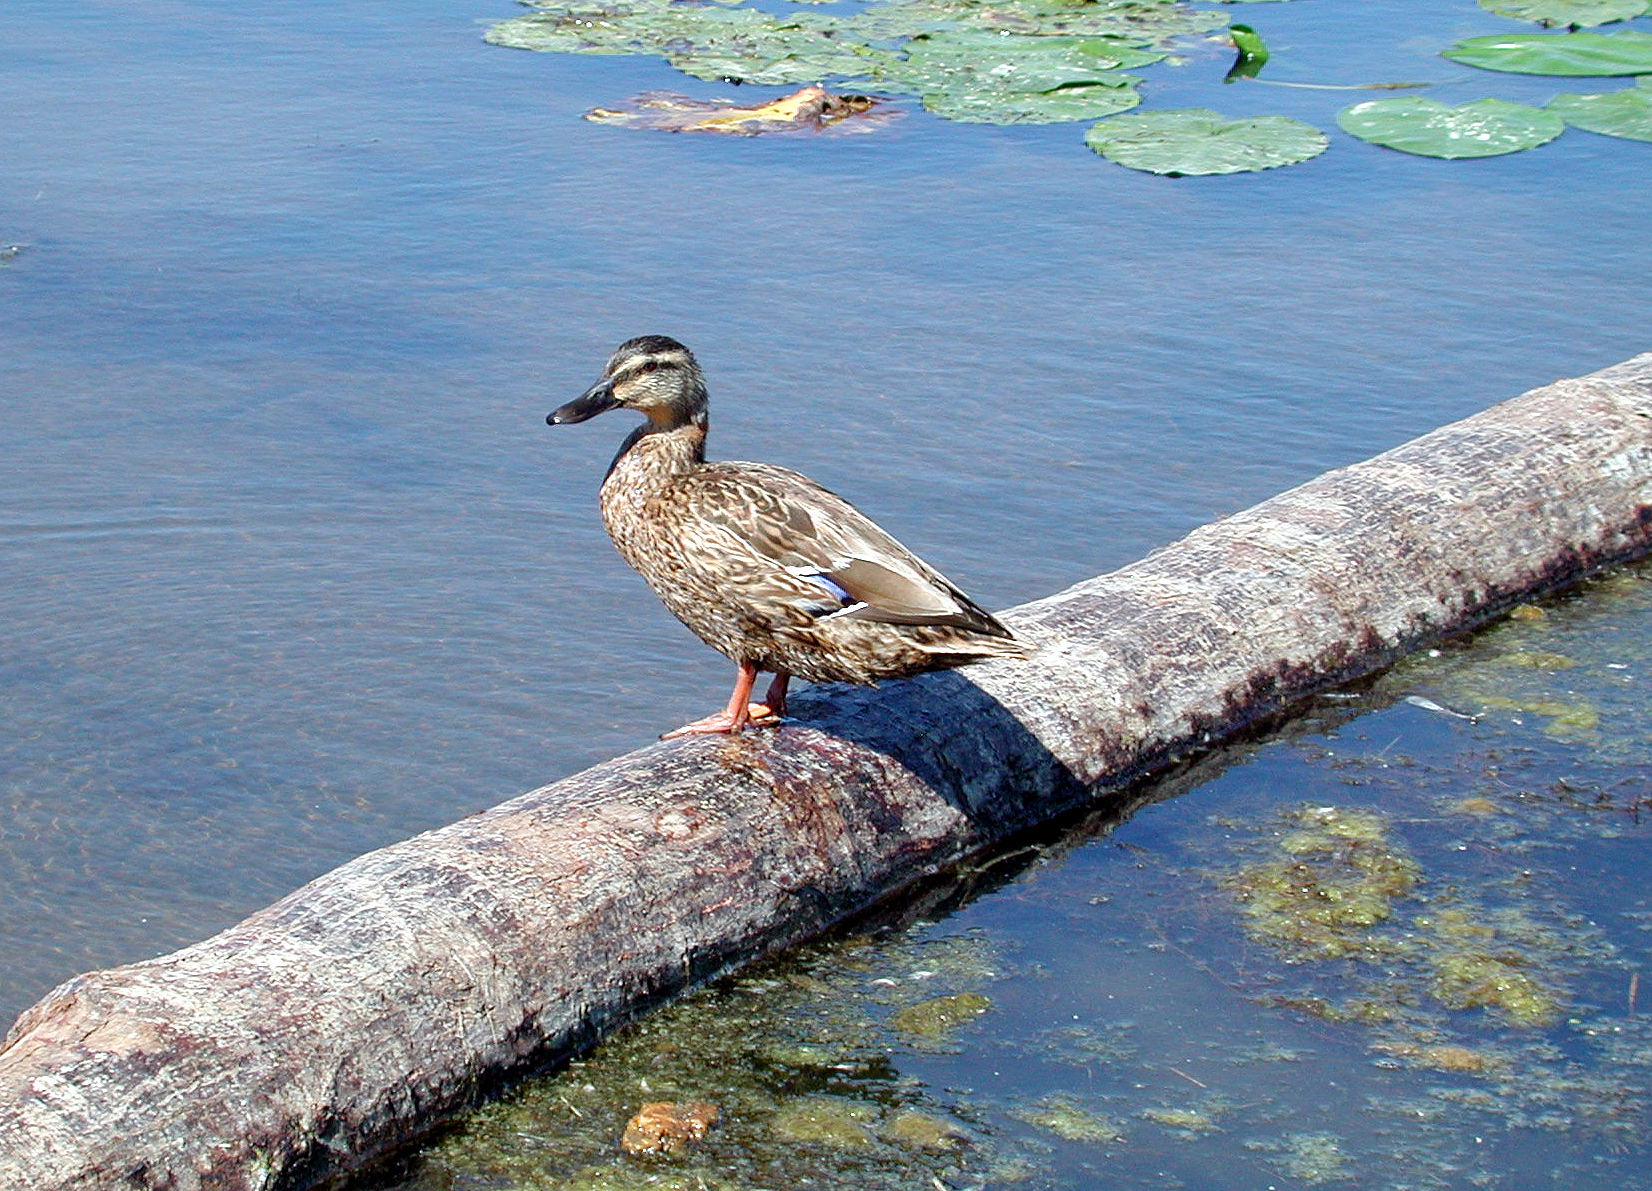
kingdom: Animalia
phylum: Chordata
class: Aves
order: Anseriformes
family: Anatidae
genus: Anas
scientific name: Anas platyrhynchos
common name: Mallard
